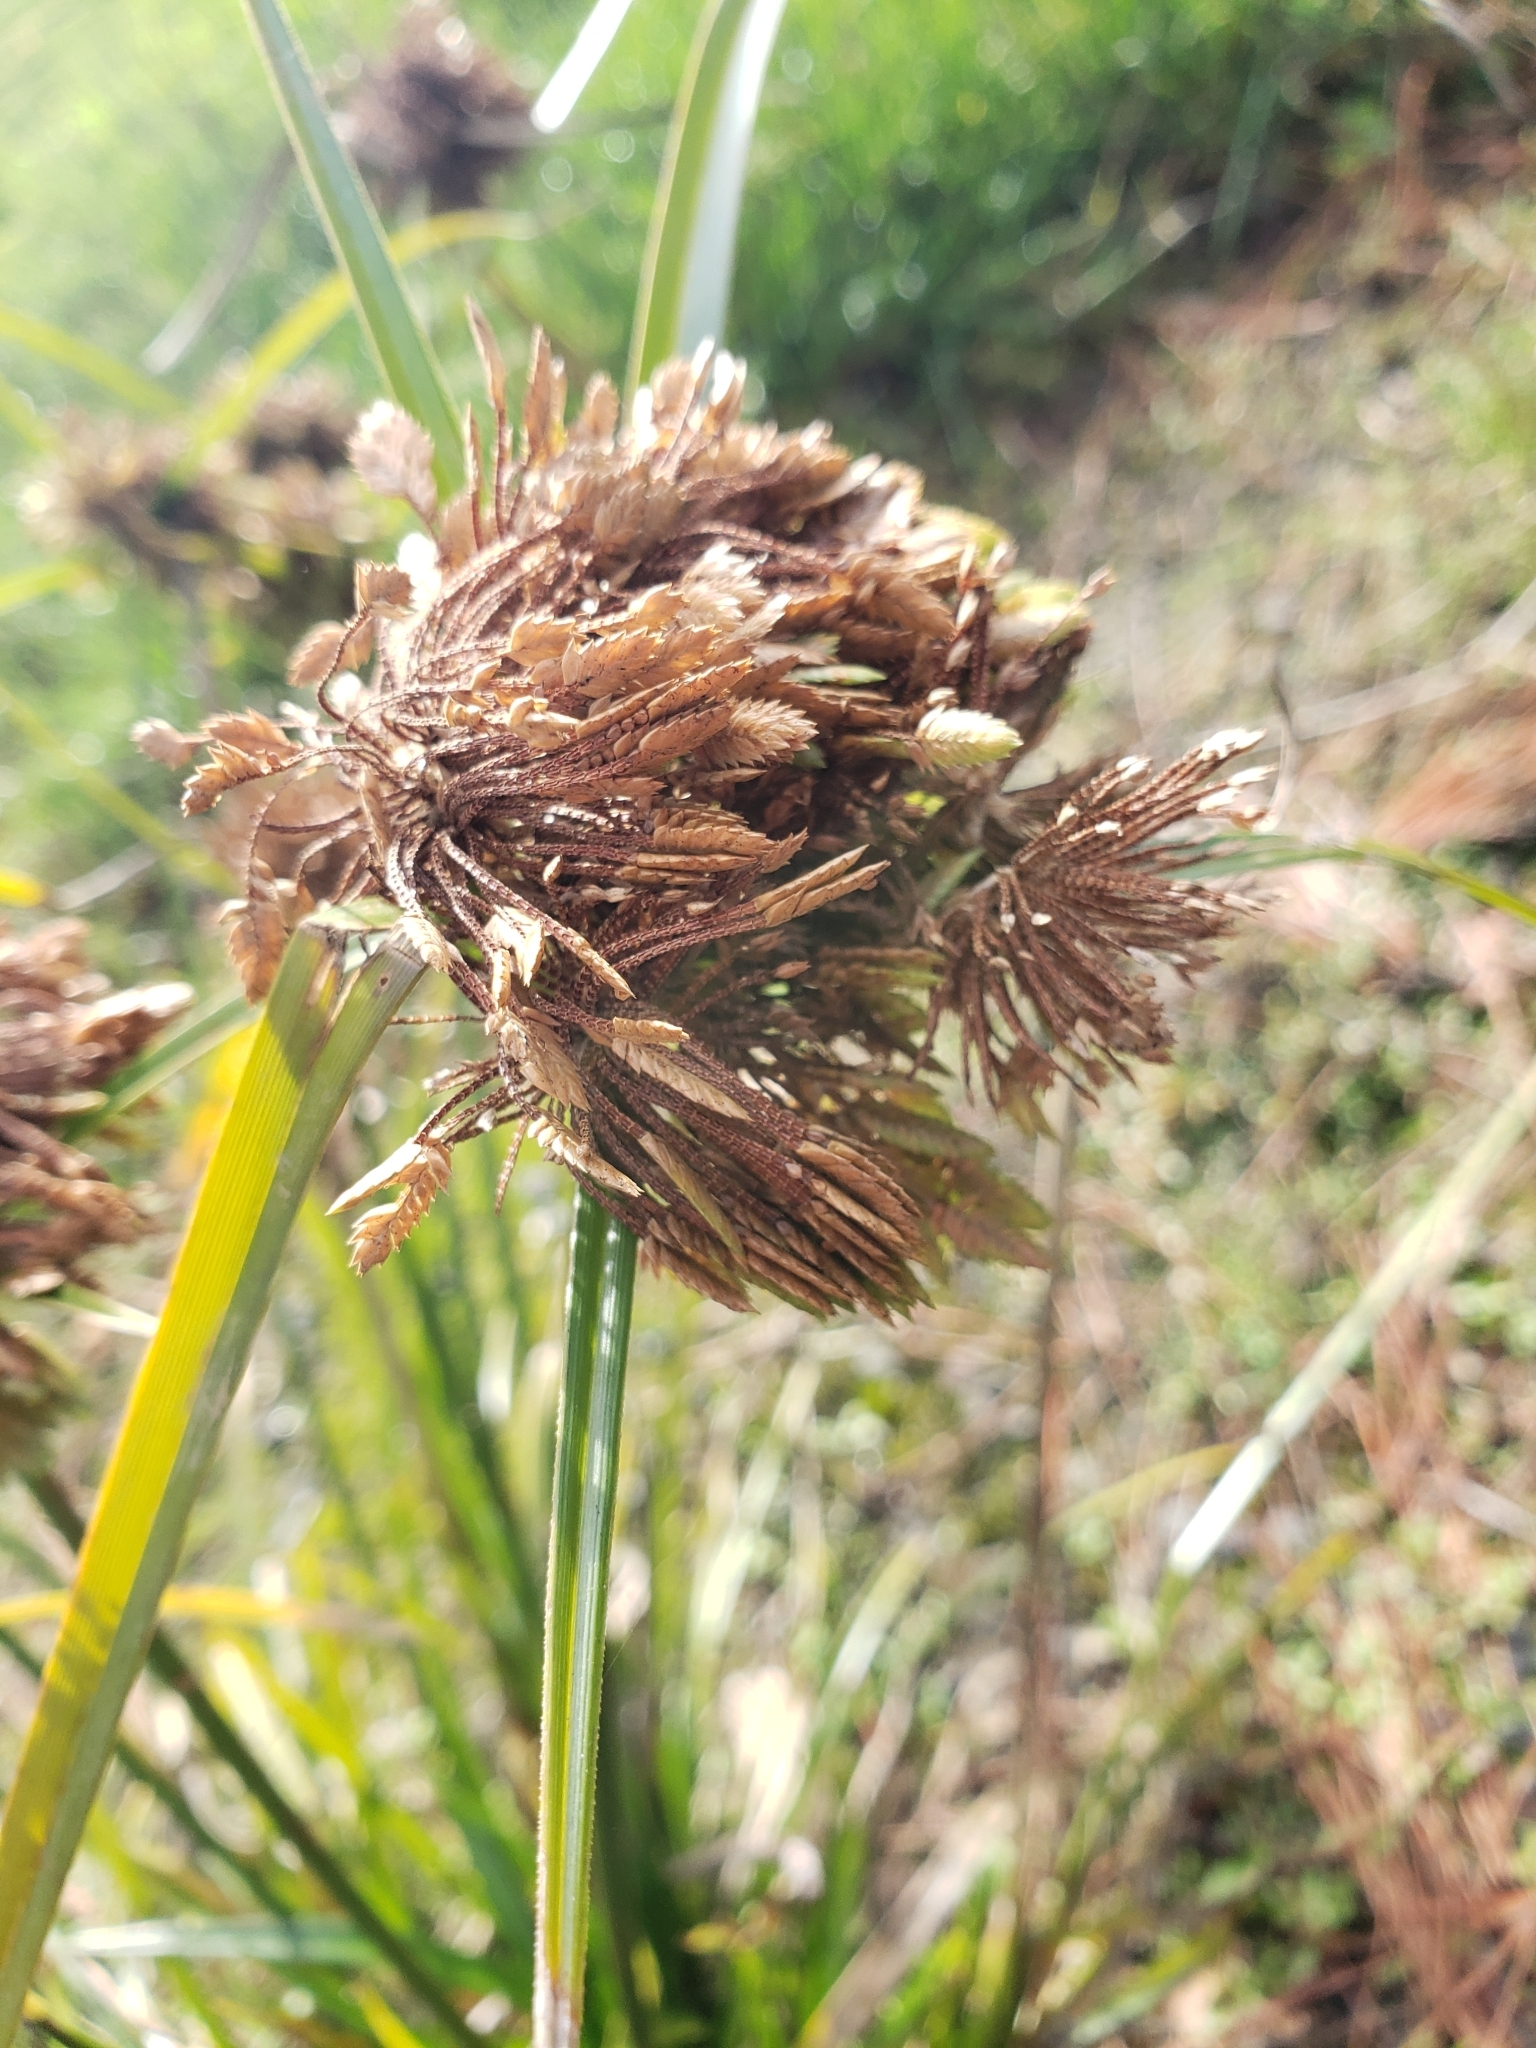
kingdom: Plantae
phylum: Tracheophyta
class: Liliopsida
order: Poales
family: Cyperaceae
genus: Cyperus
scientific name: Cyperus eragrostis
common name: Tall flatsedge
